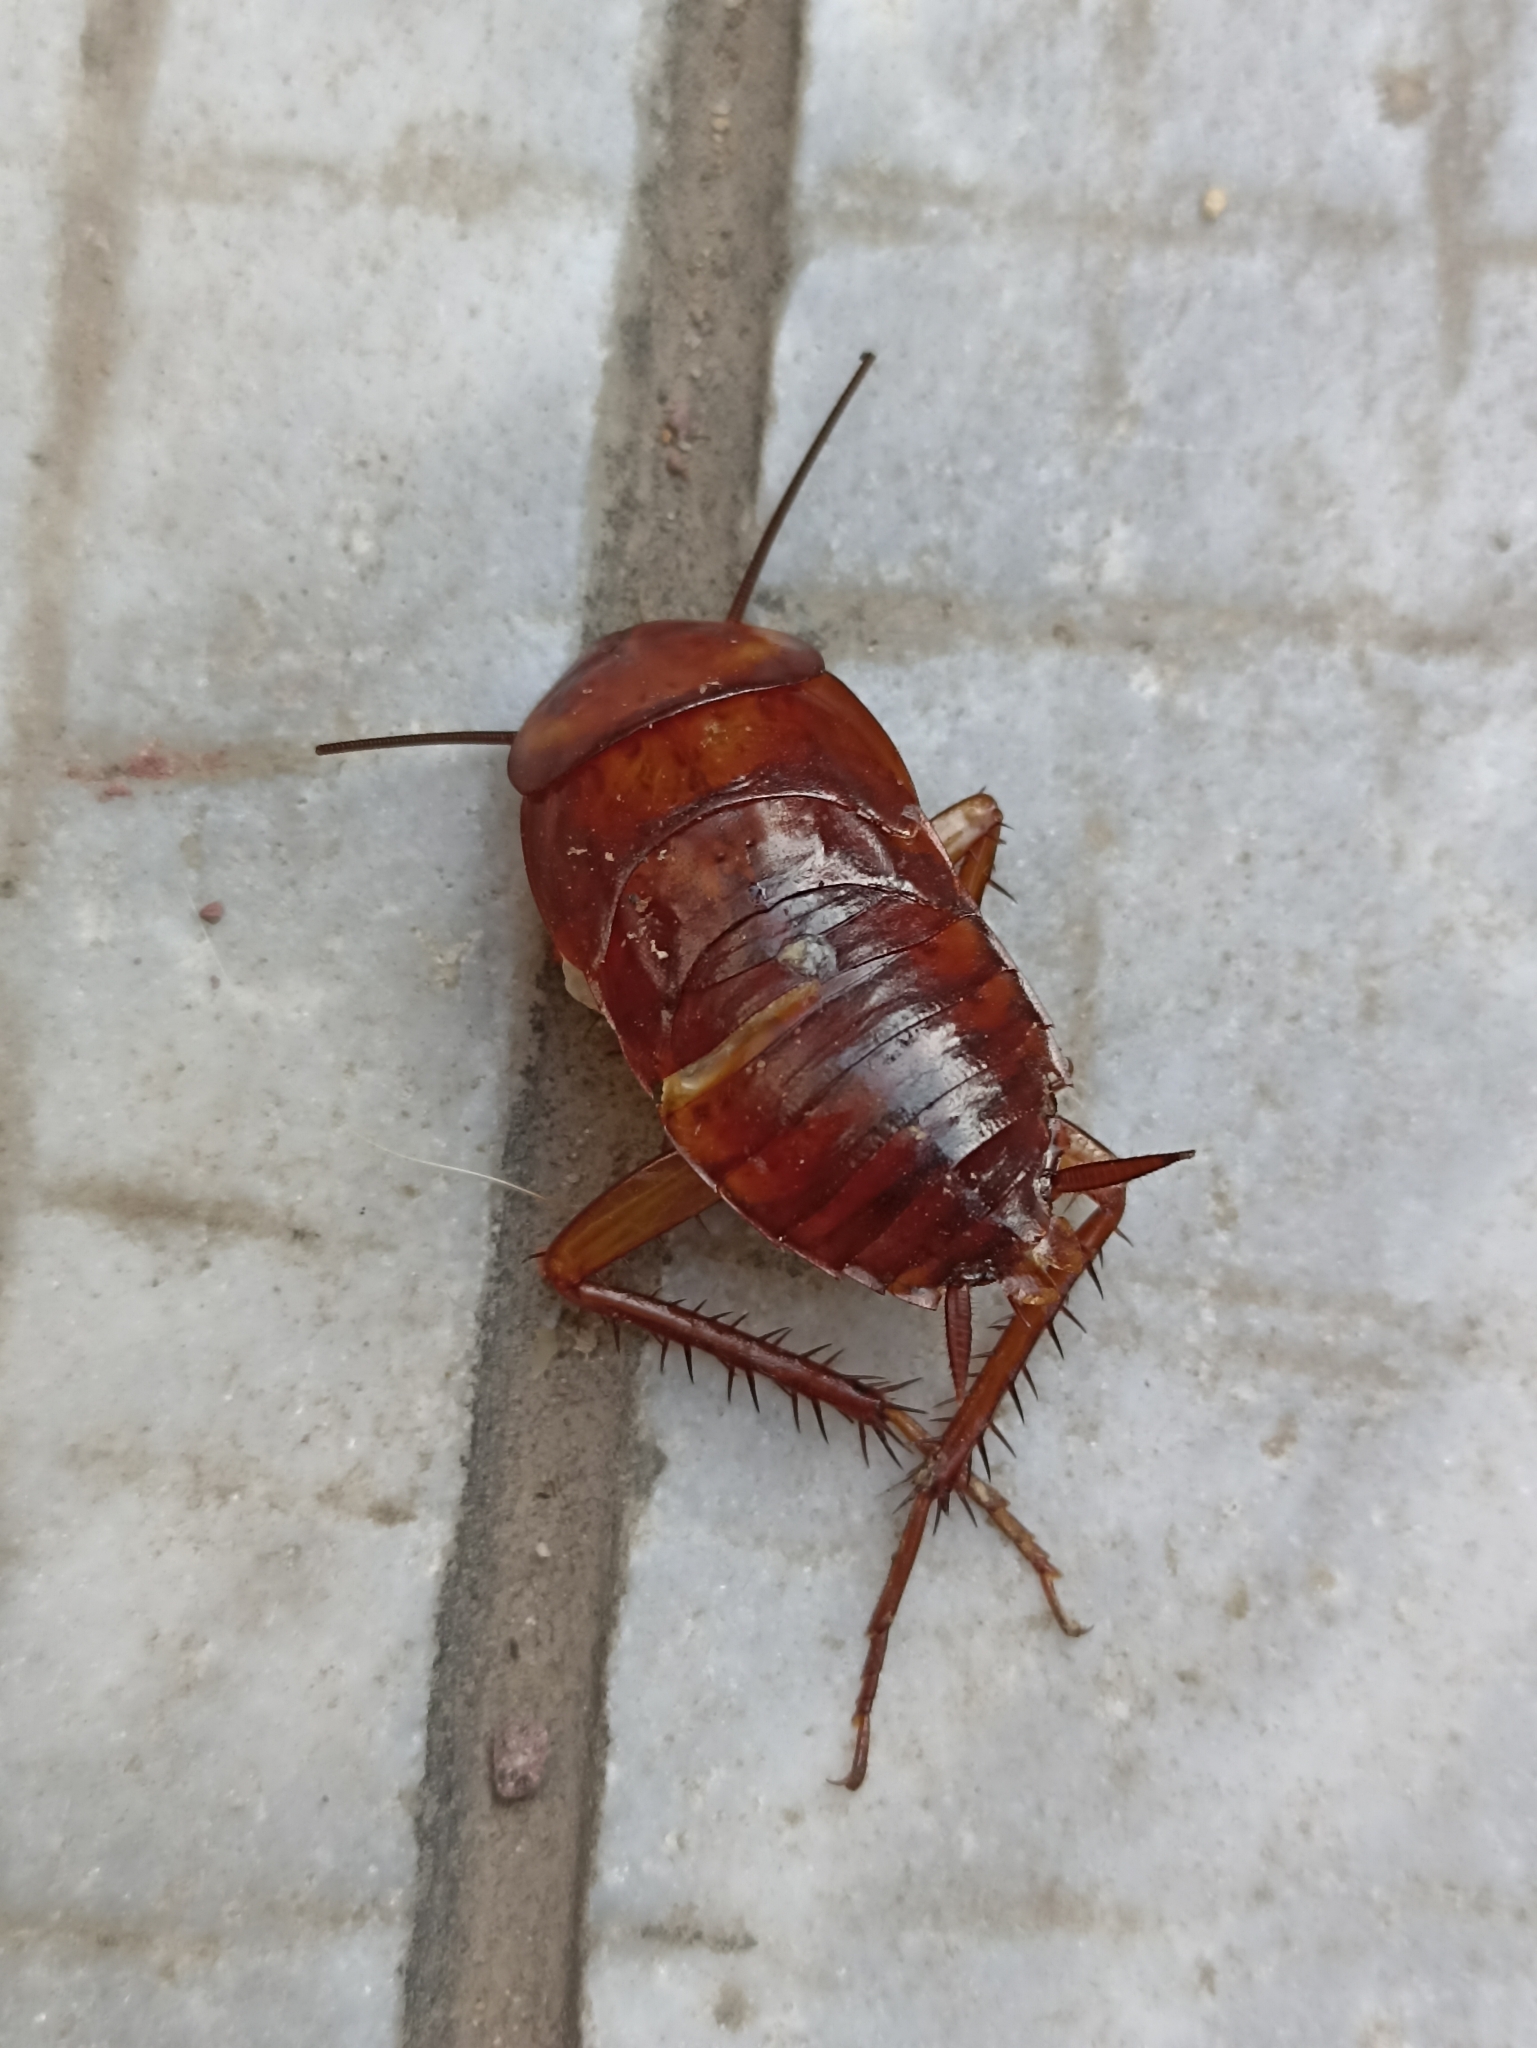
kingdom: Animalia
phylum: Arthropoda
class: Insecta
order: Blattodea
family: Blattidae
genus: Periplaneta
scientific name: Periplaneta americana
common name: American cockroach
